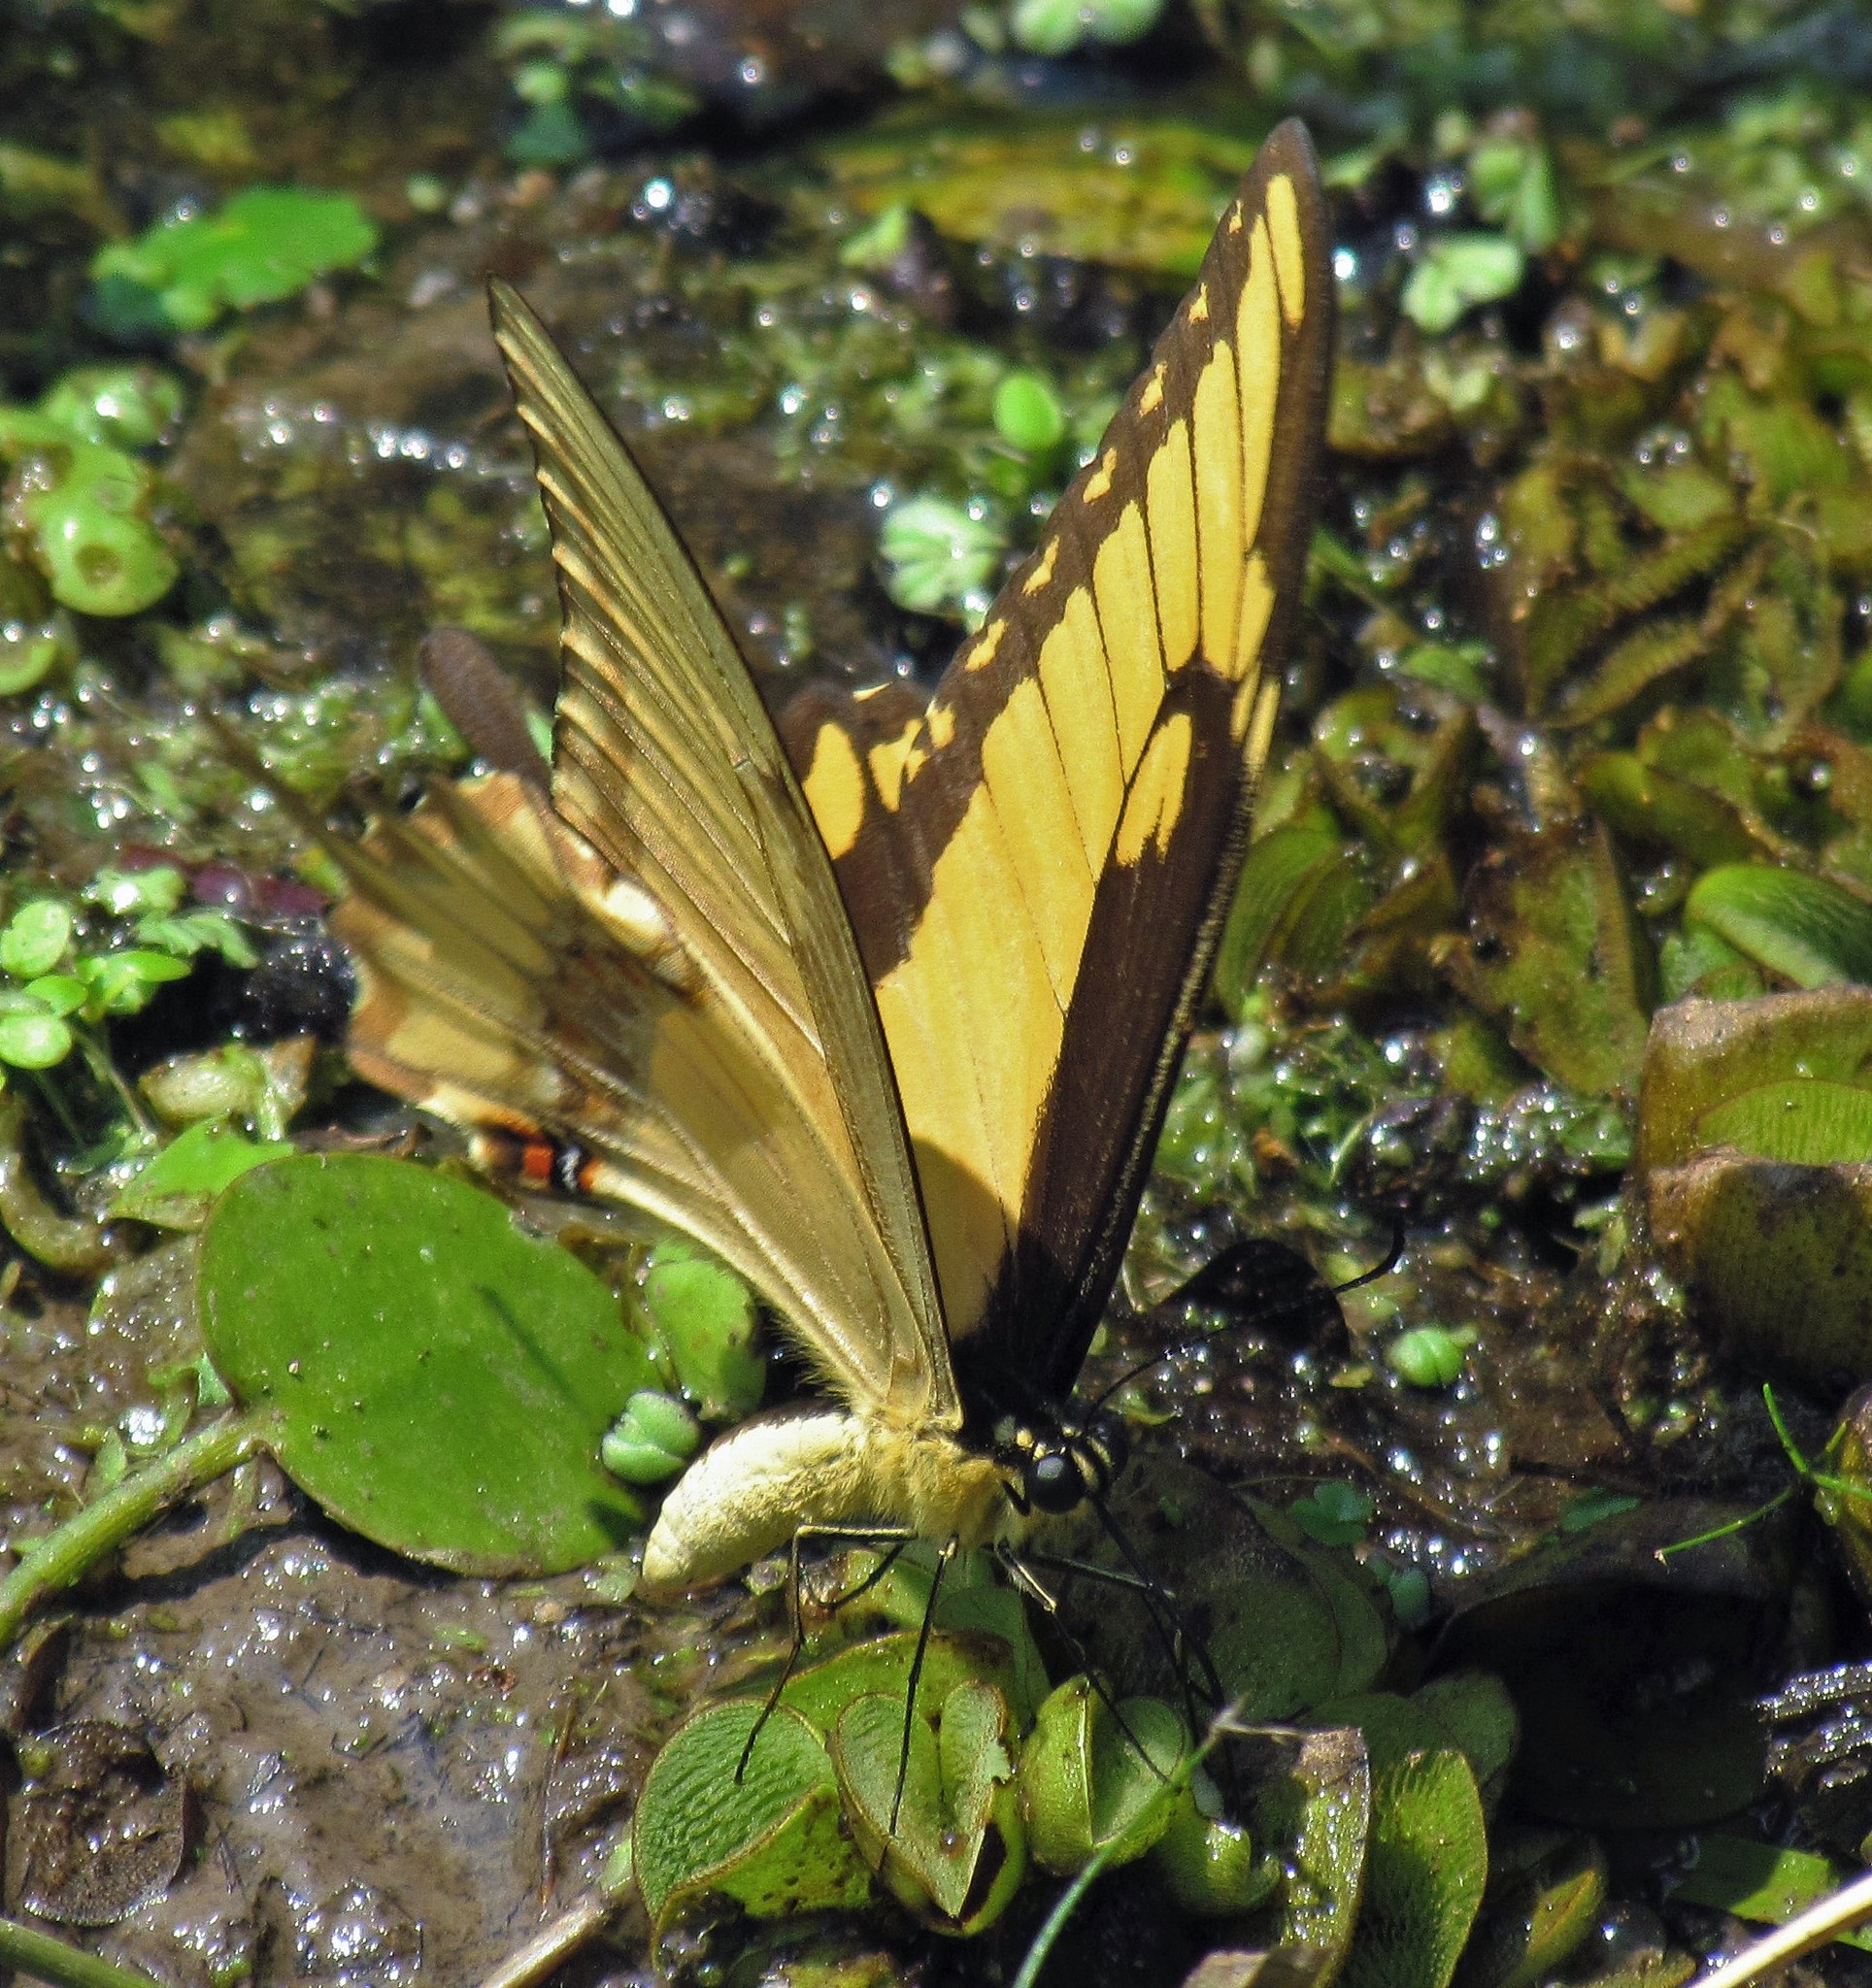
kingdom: Animalia
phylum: Arthropoda
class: Insecta
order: Lepidoptera
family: Papilionidae
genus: Papilio
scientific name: Papilio astyalus
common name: Astyalus swallowtail
